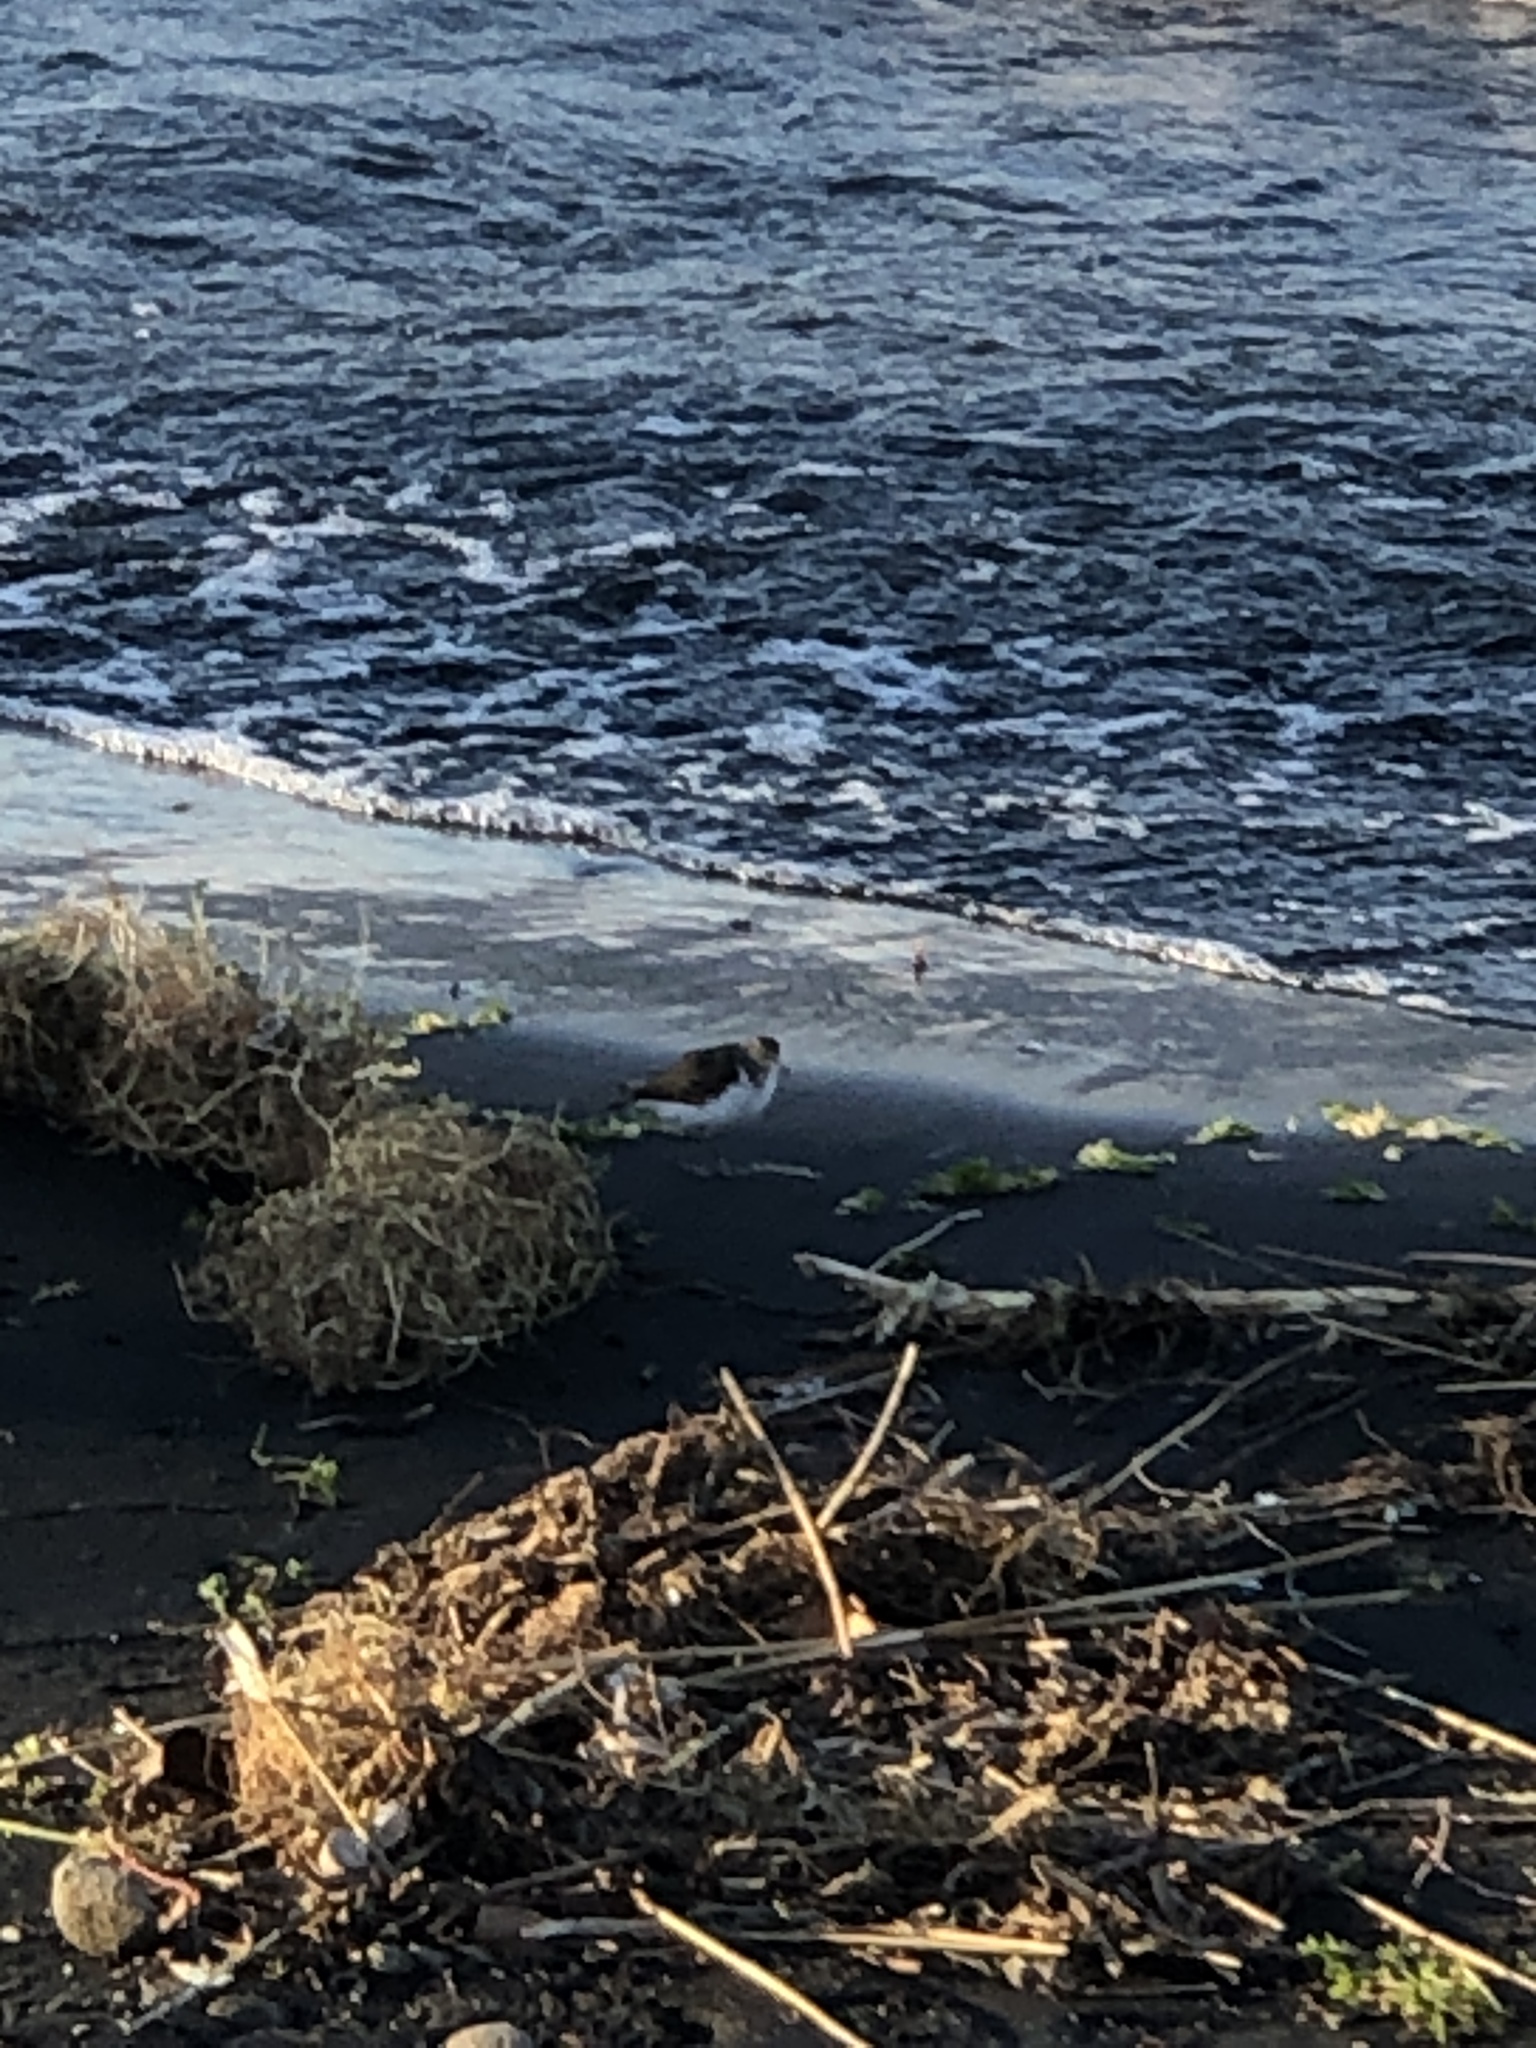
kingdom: Animalia
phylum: Chordata
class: Aves
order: Charadriiformes
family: Scolopacidae
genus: Actitis
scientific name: Actitis hypoleucos
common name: Common sandpiper
